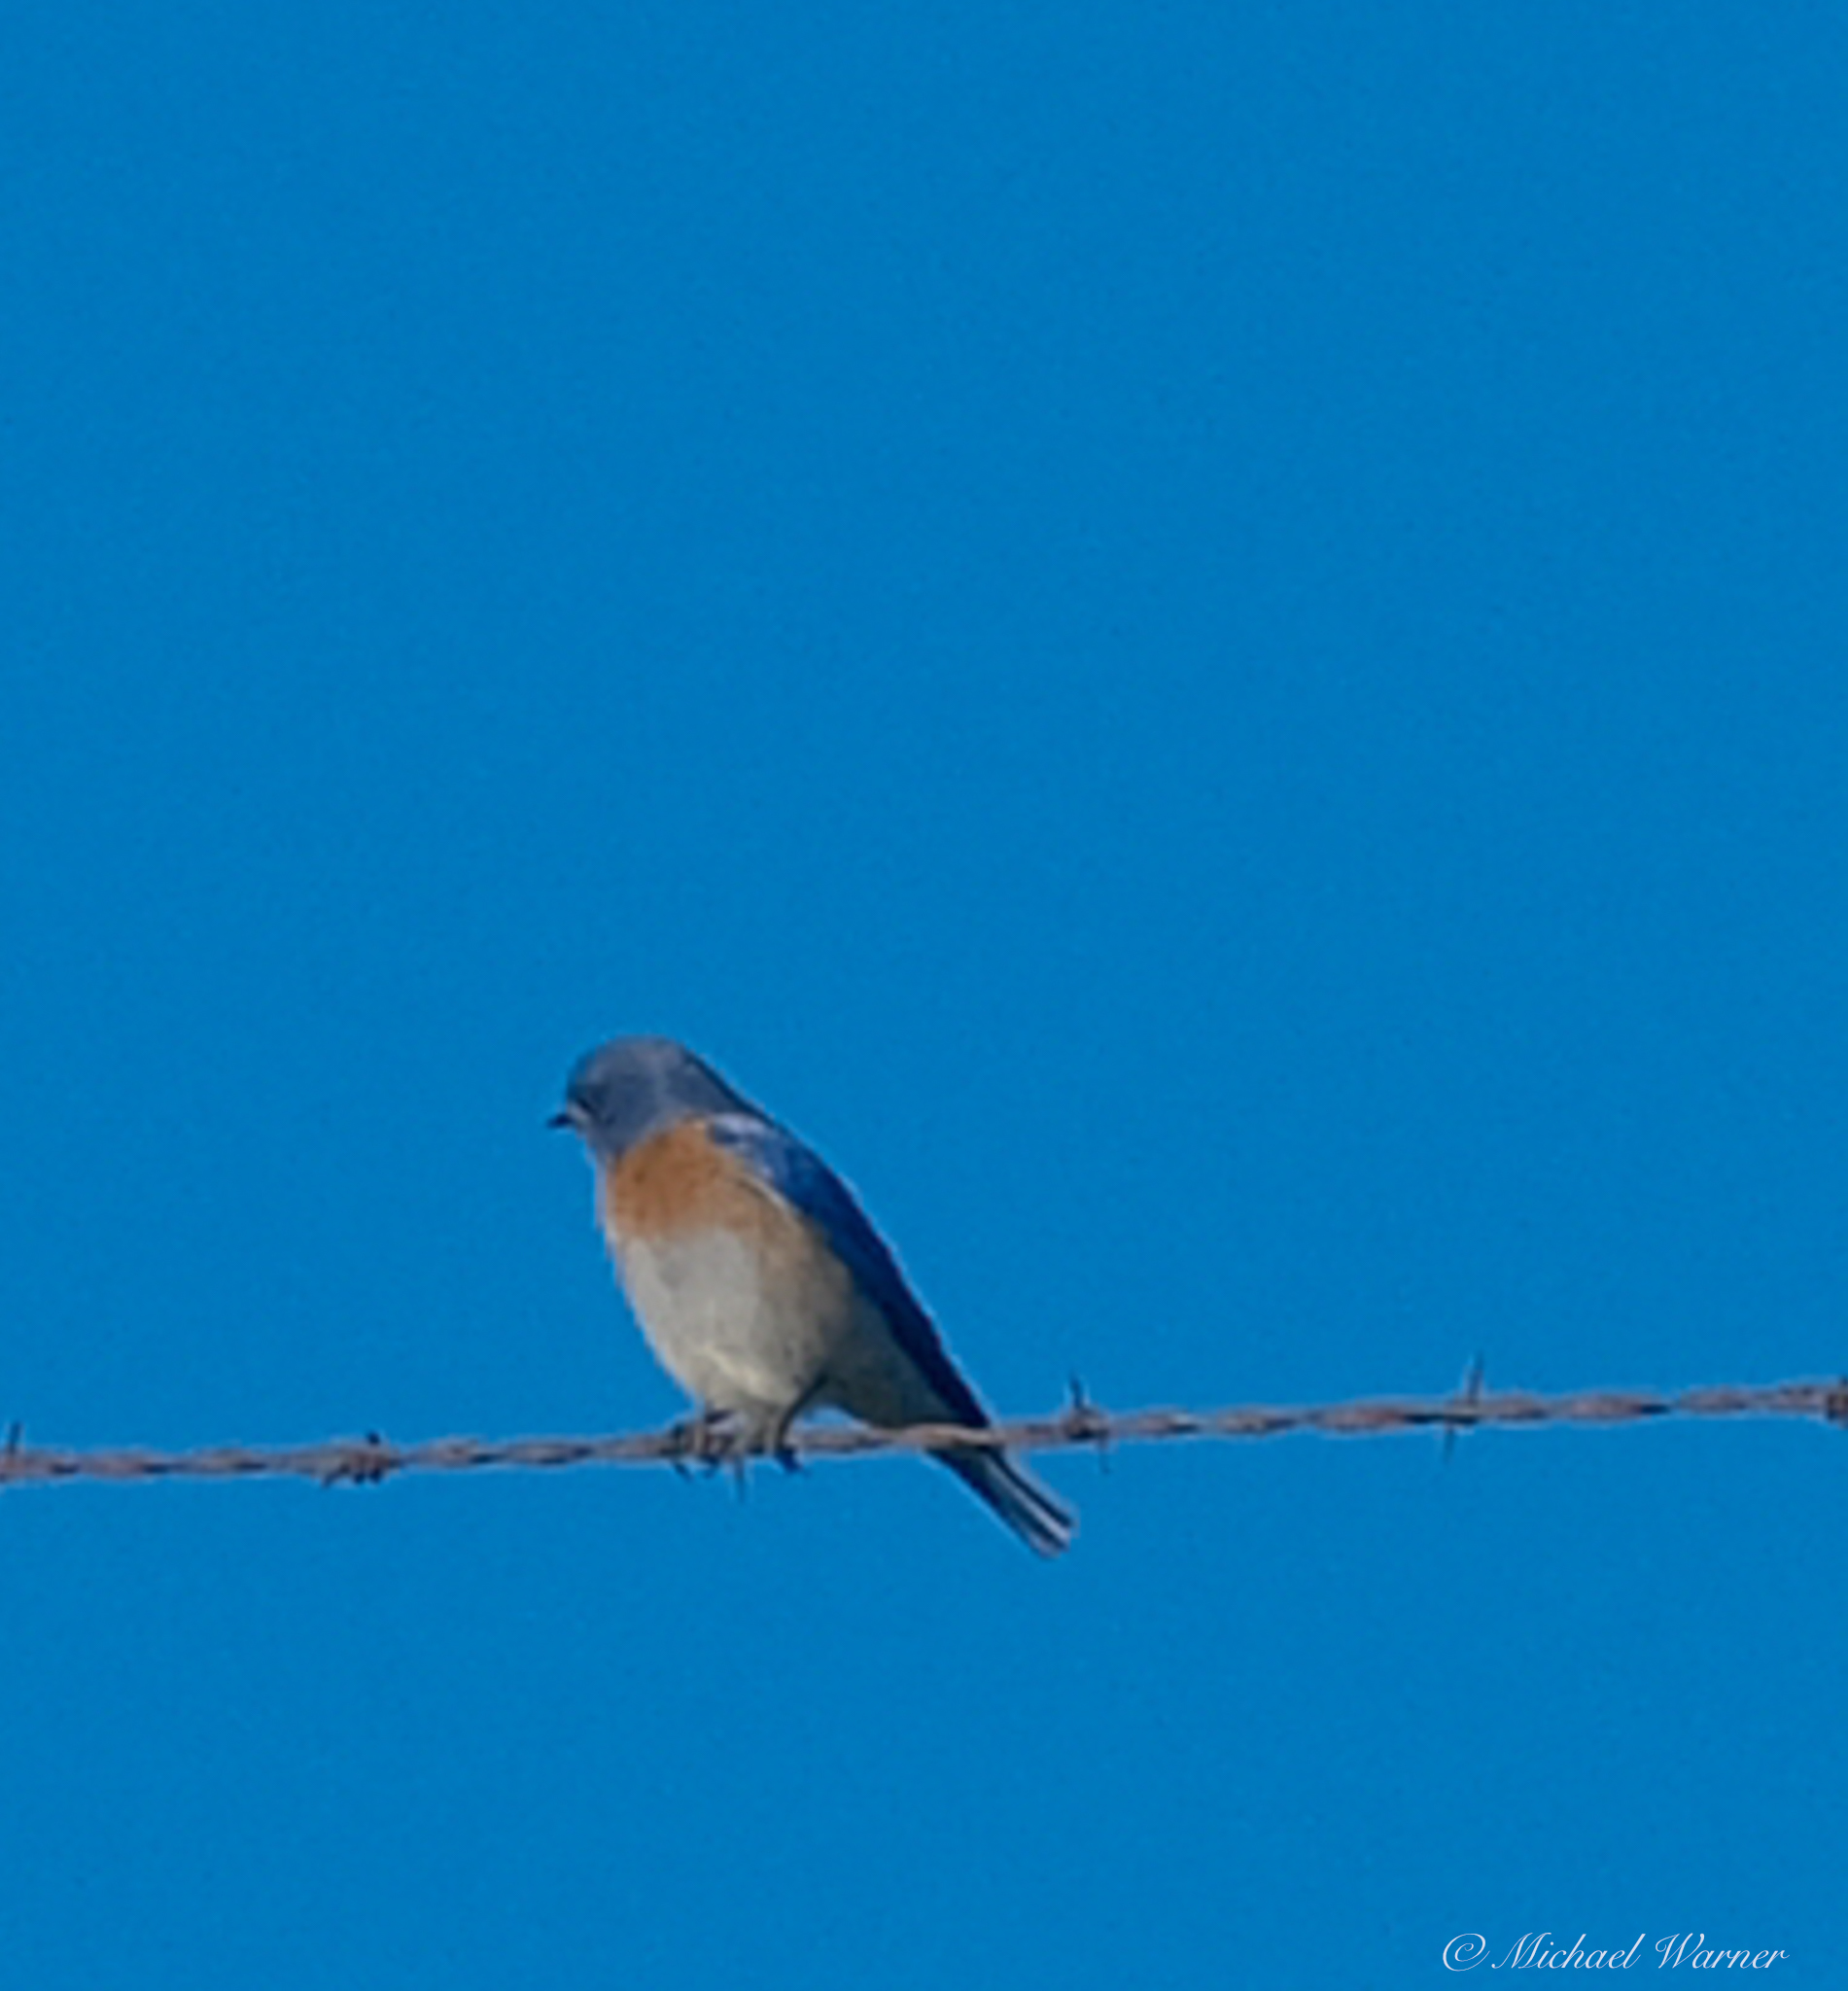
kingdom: Animalia
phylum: Chordata
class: Aves
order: Passeriformes
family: Turdidae
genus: Sialia
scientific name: Sialia mexicana
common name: Western bluebird
